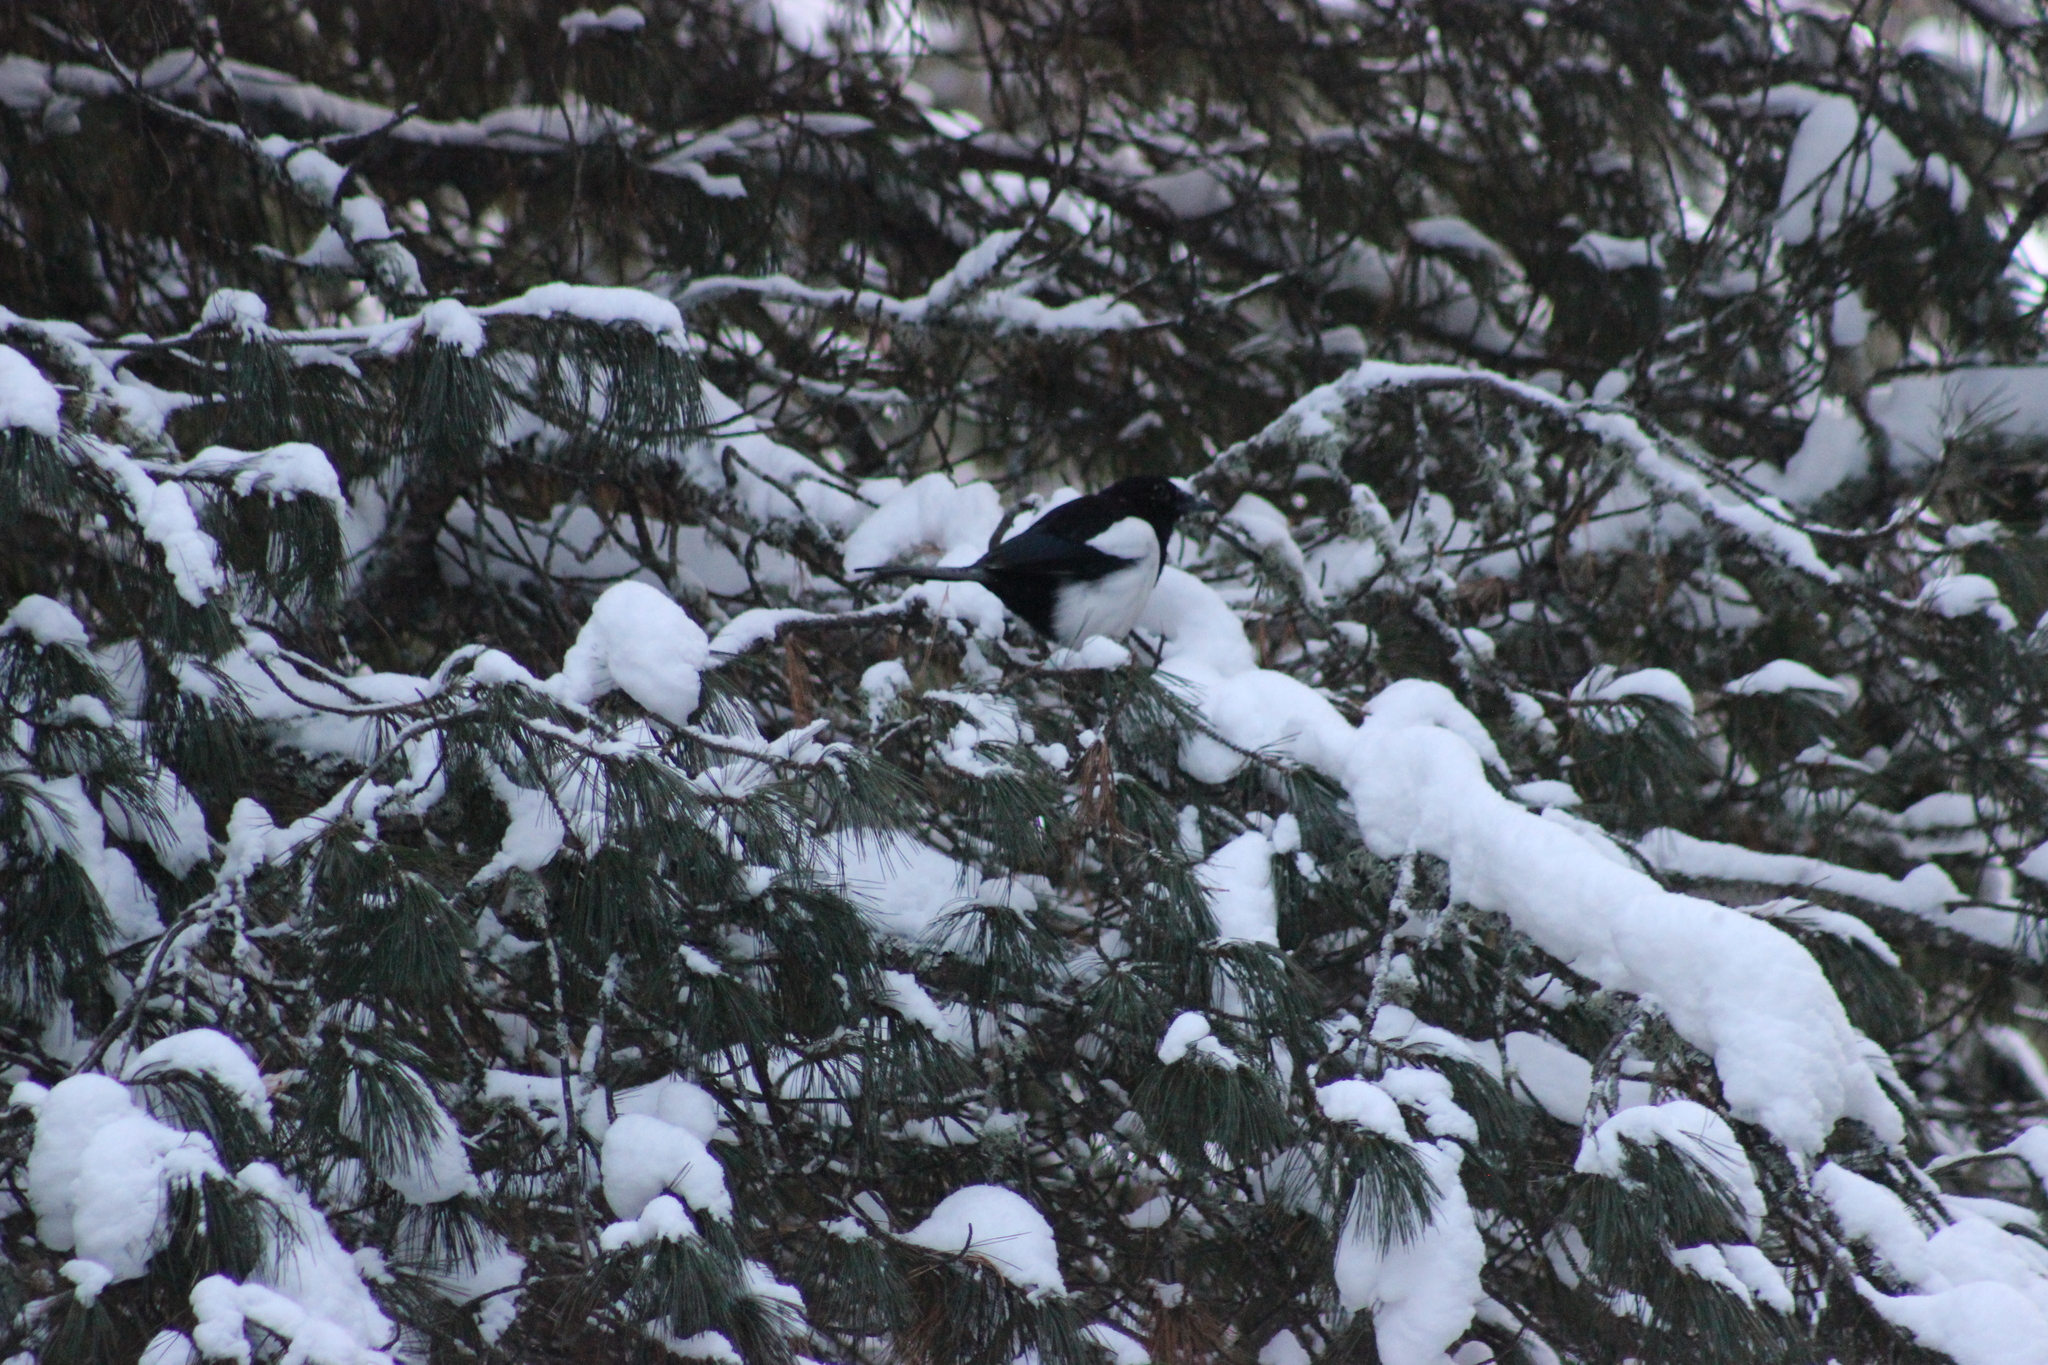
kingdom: Animalia
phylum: Chordata
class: Aves
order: Passeriformes
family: Corvidae
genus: Pica
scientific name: Pica pica
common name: Eurasian magpie
